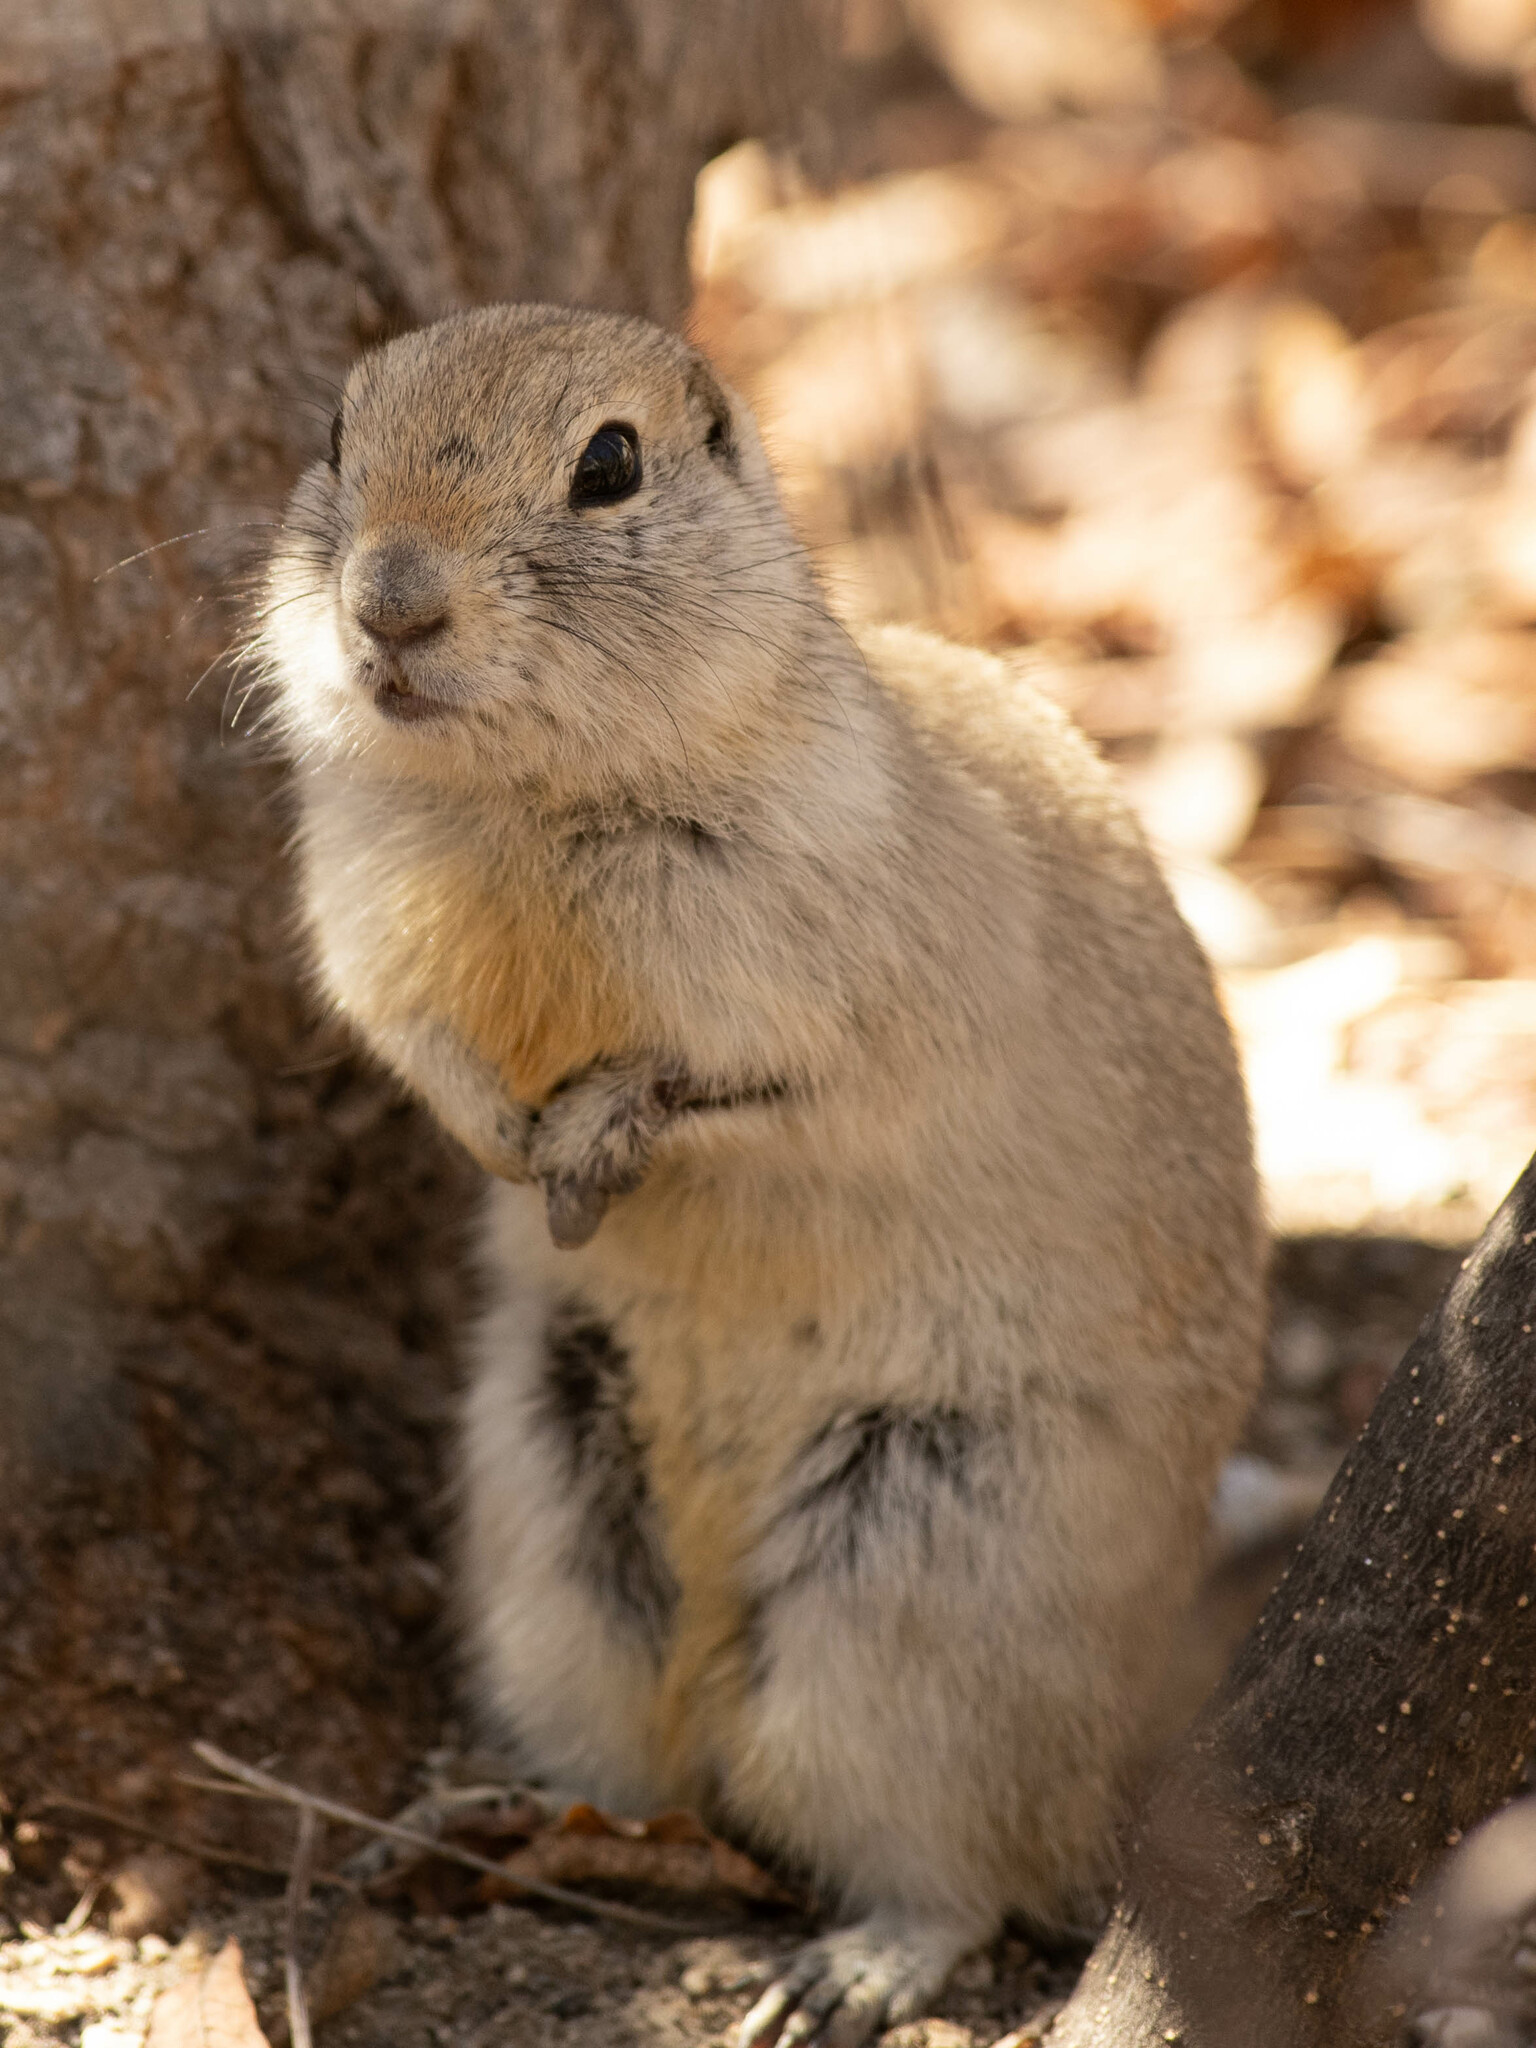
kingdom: Animalia
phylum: Chordata
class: Mammalia
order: Rodentia
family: Sciuridae
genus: Urocitellus
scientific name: Urocitellus richardsonii
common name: Richardson's ground squirrel
